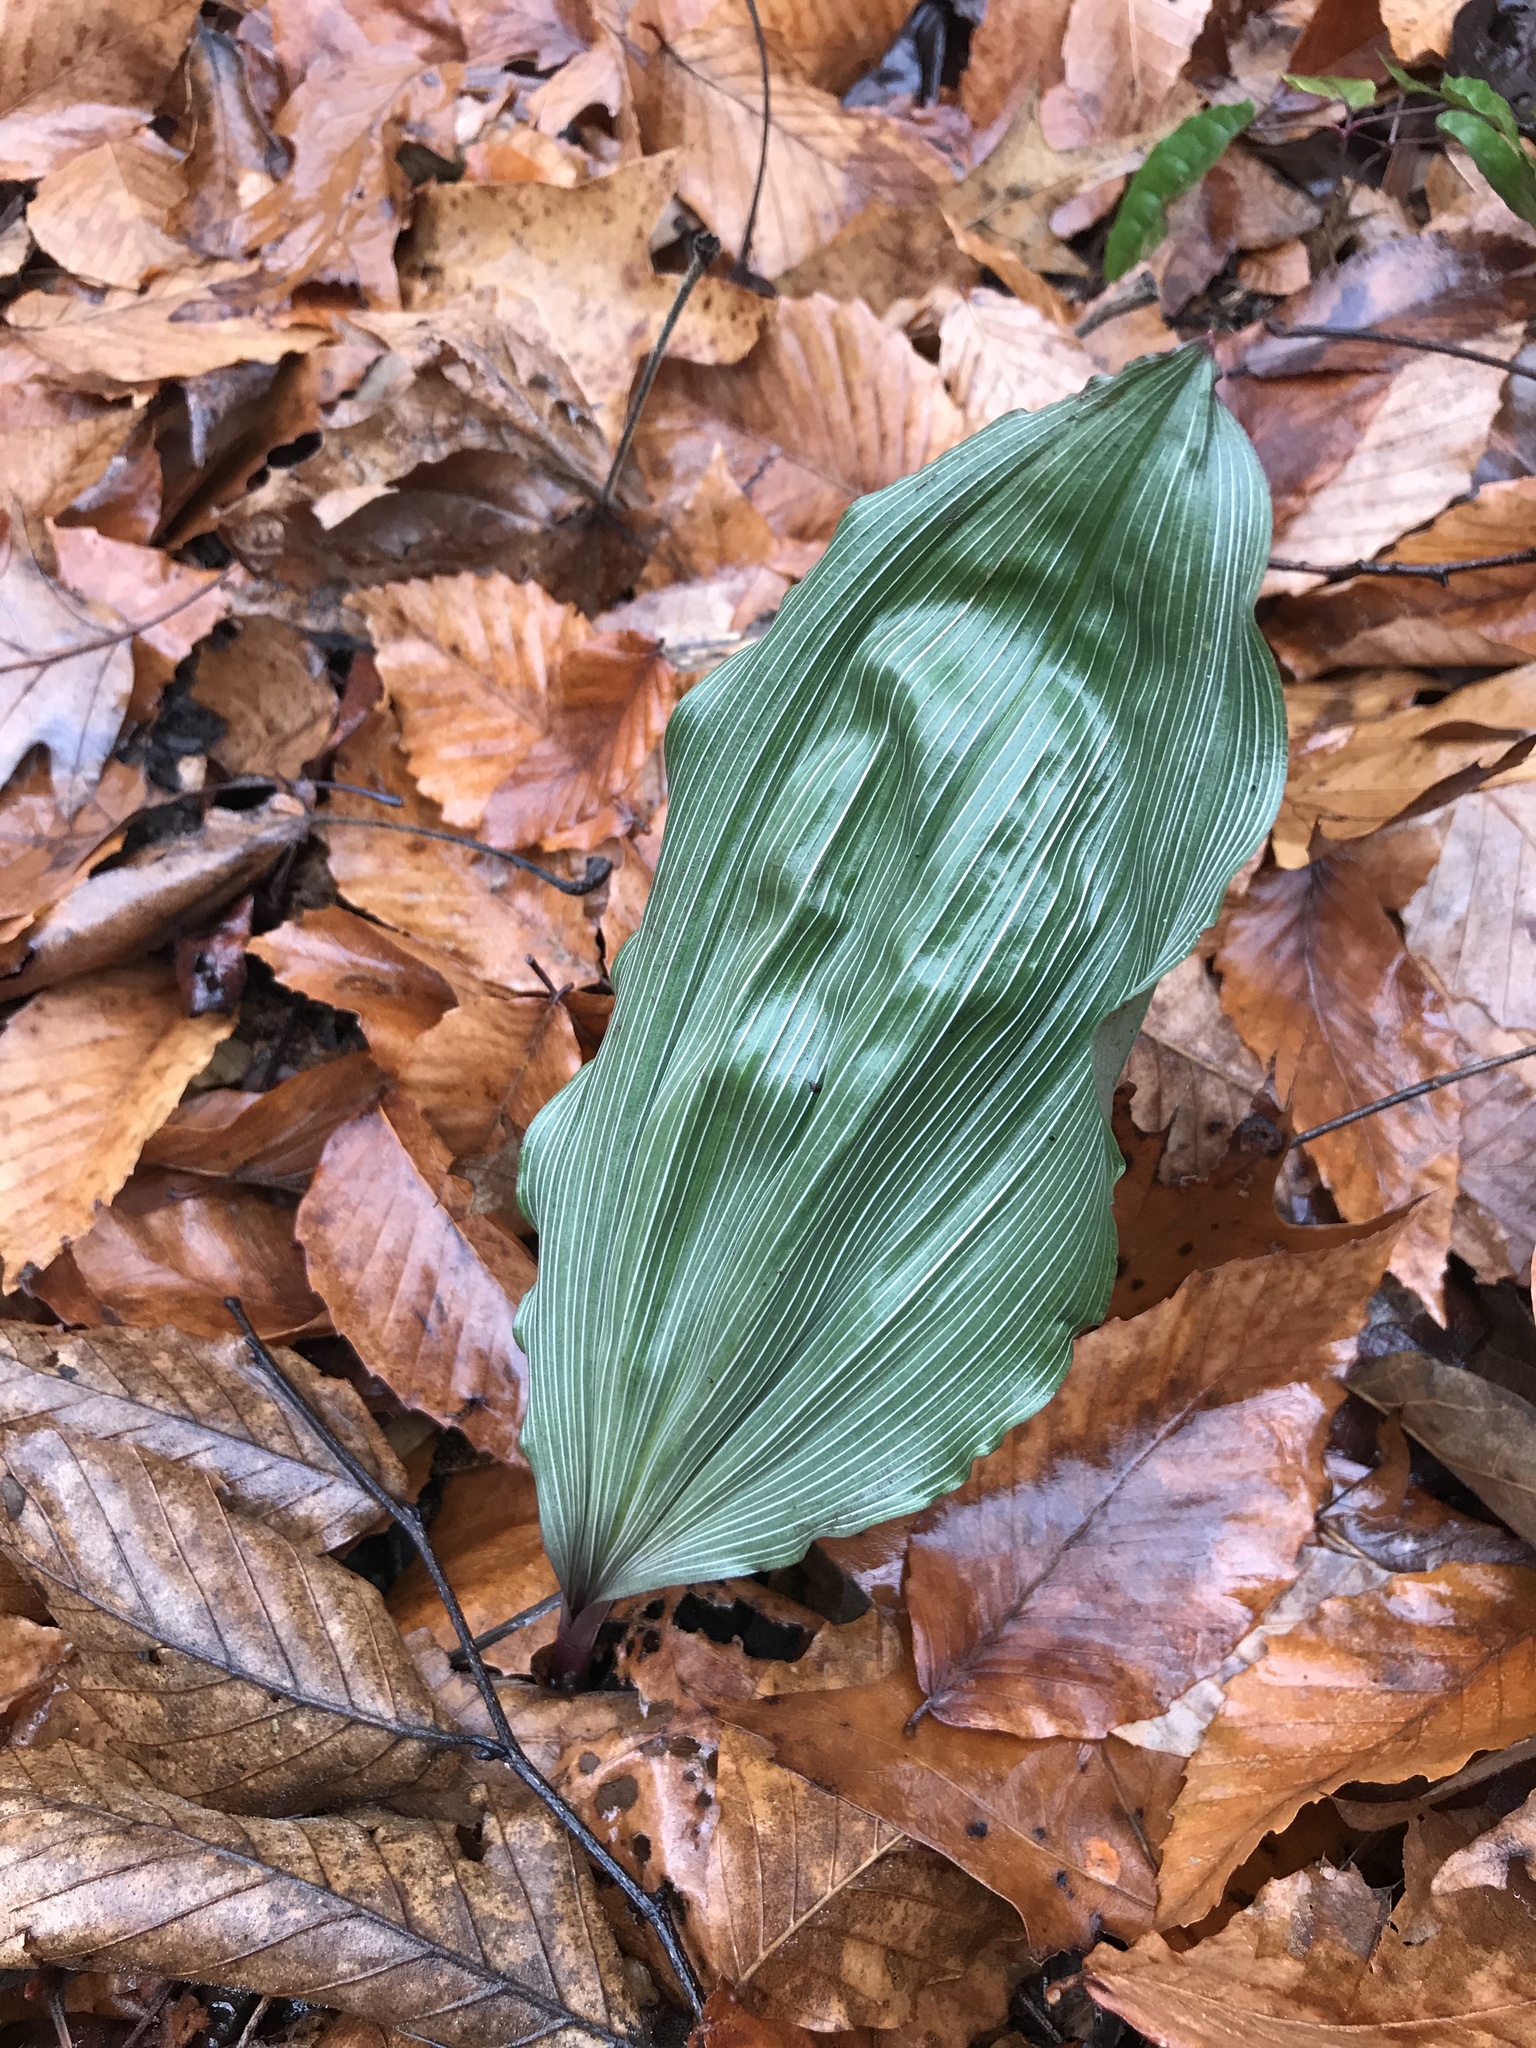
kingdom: Plantae
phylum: Tracheophyta
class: Liliopsida
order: Asparagales
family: Orchidaceae
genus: Aplectrum
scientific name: Aplectrum hyemale
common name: Adam-and-eve
